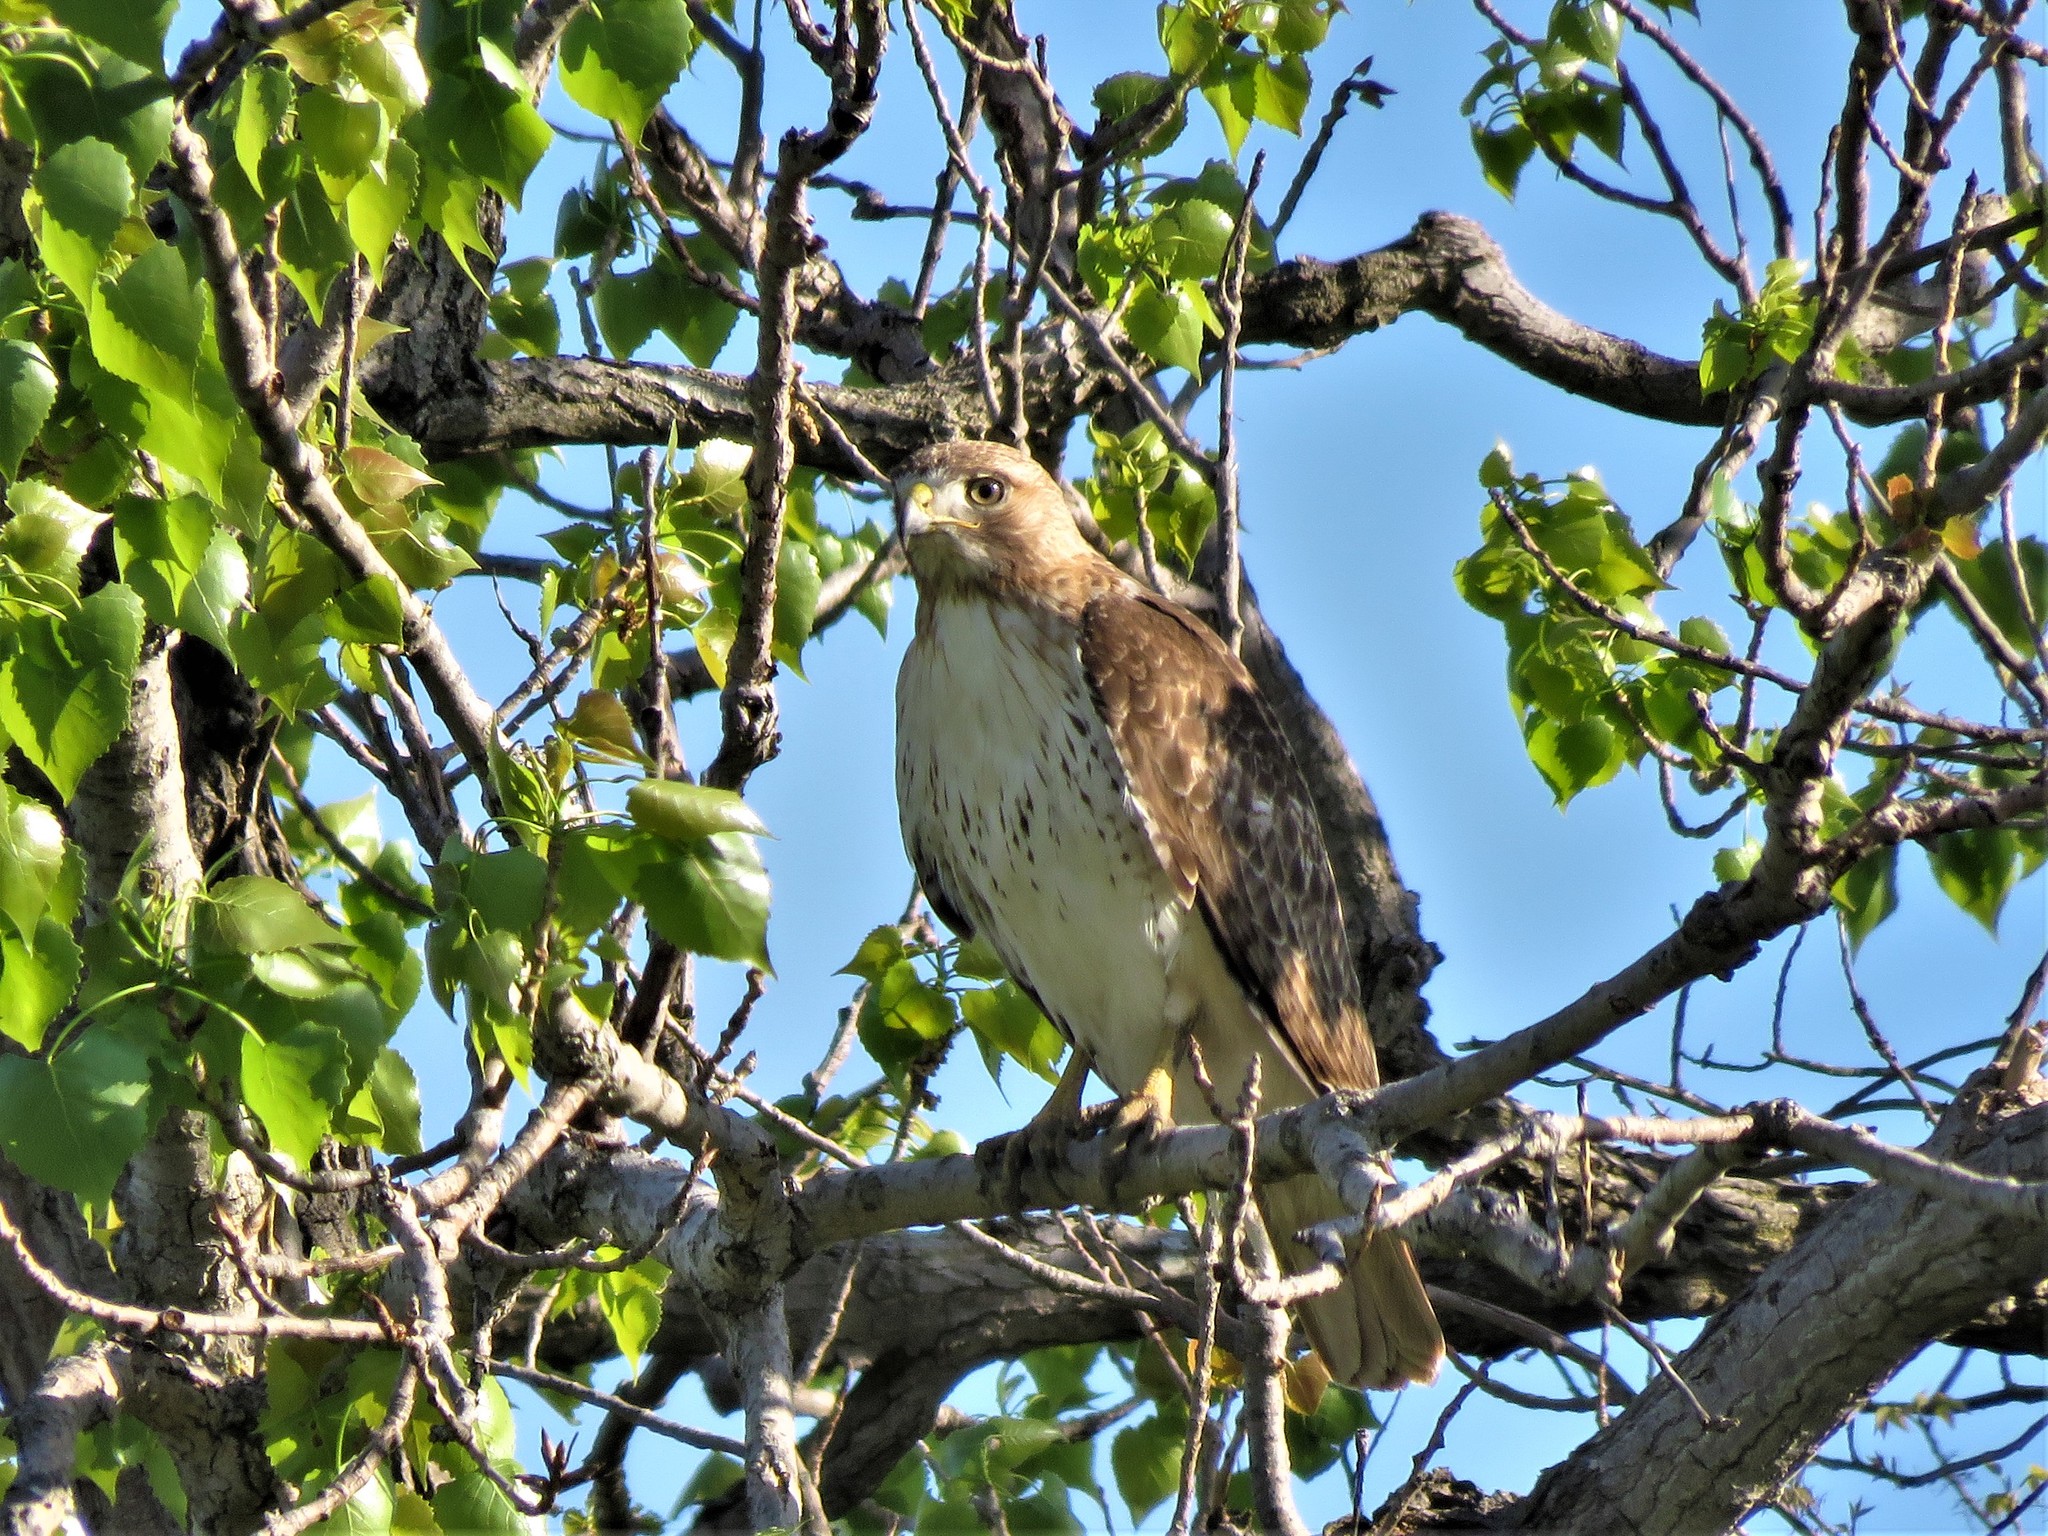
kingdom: Animalia
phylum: Chordata
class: Aves
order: Accipitriformes
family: Accipitridae
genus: Buteo
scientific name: Buteo jamaicensis
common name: Red-tailed hawk
